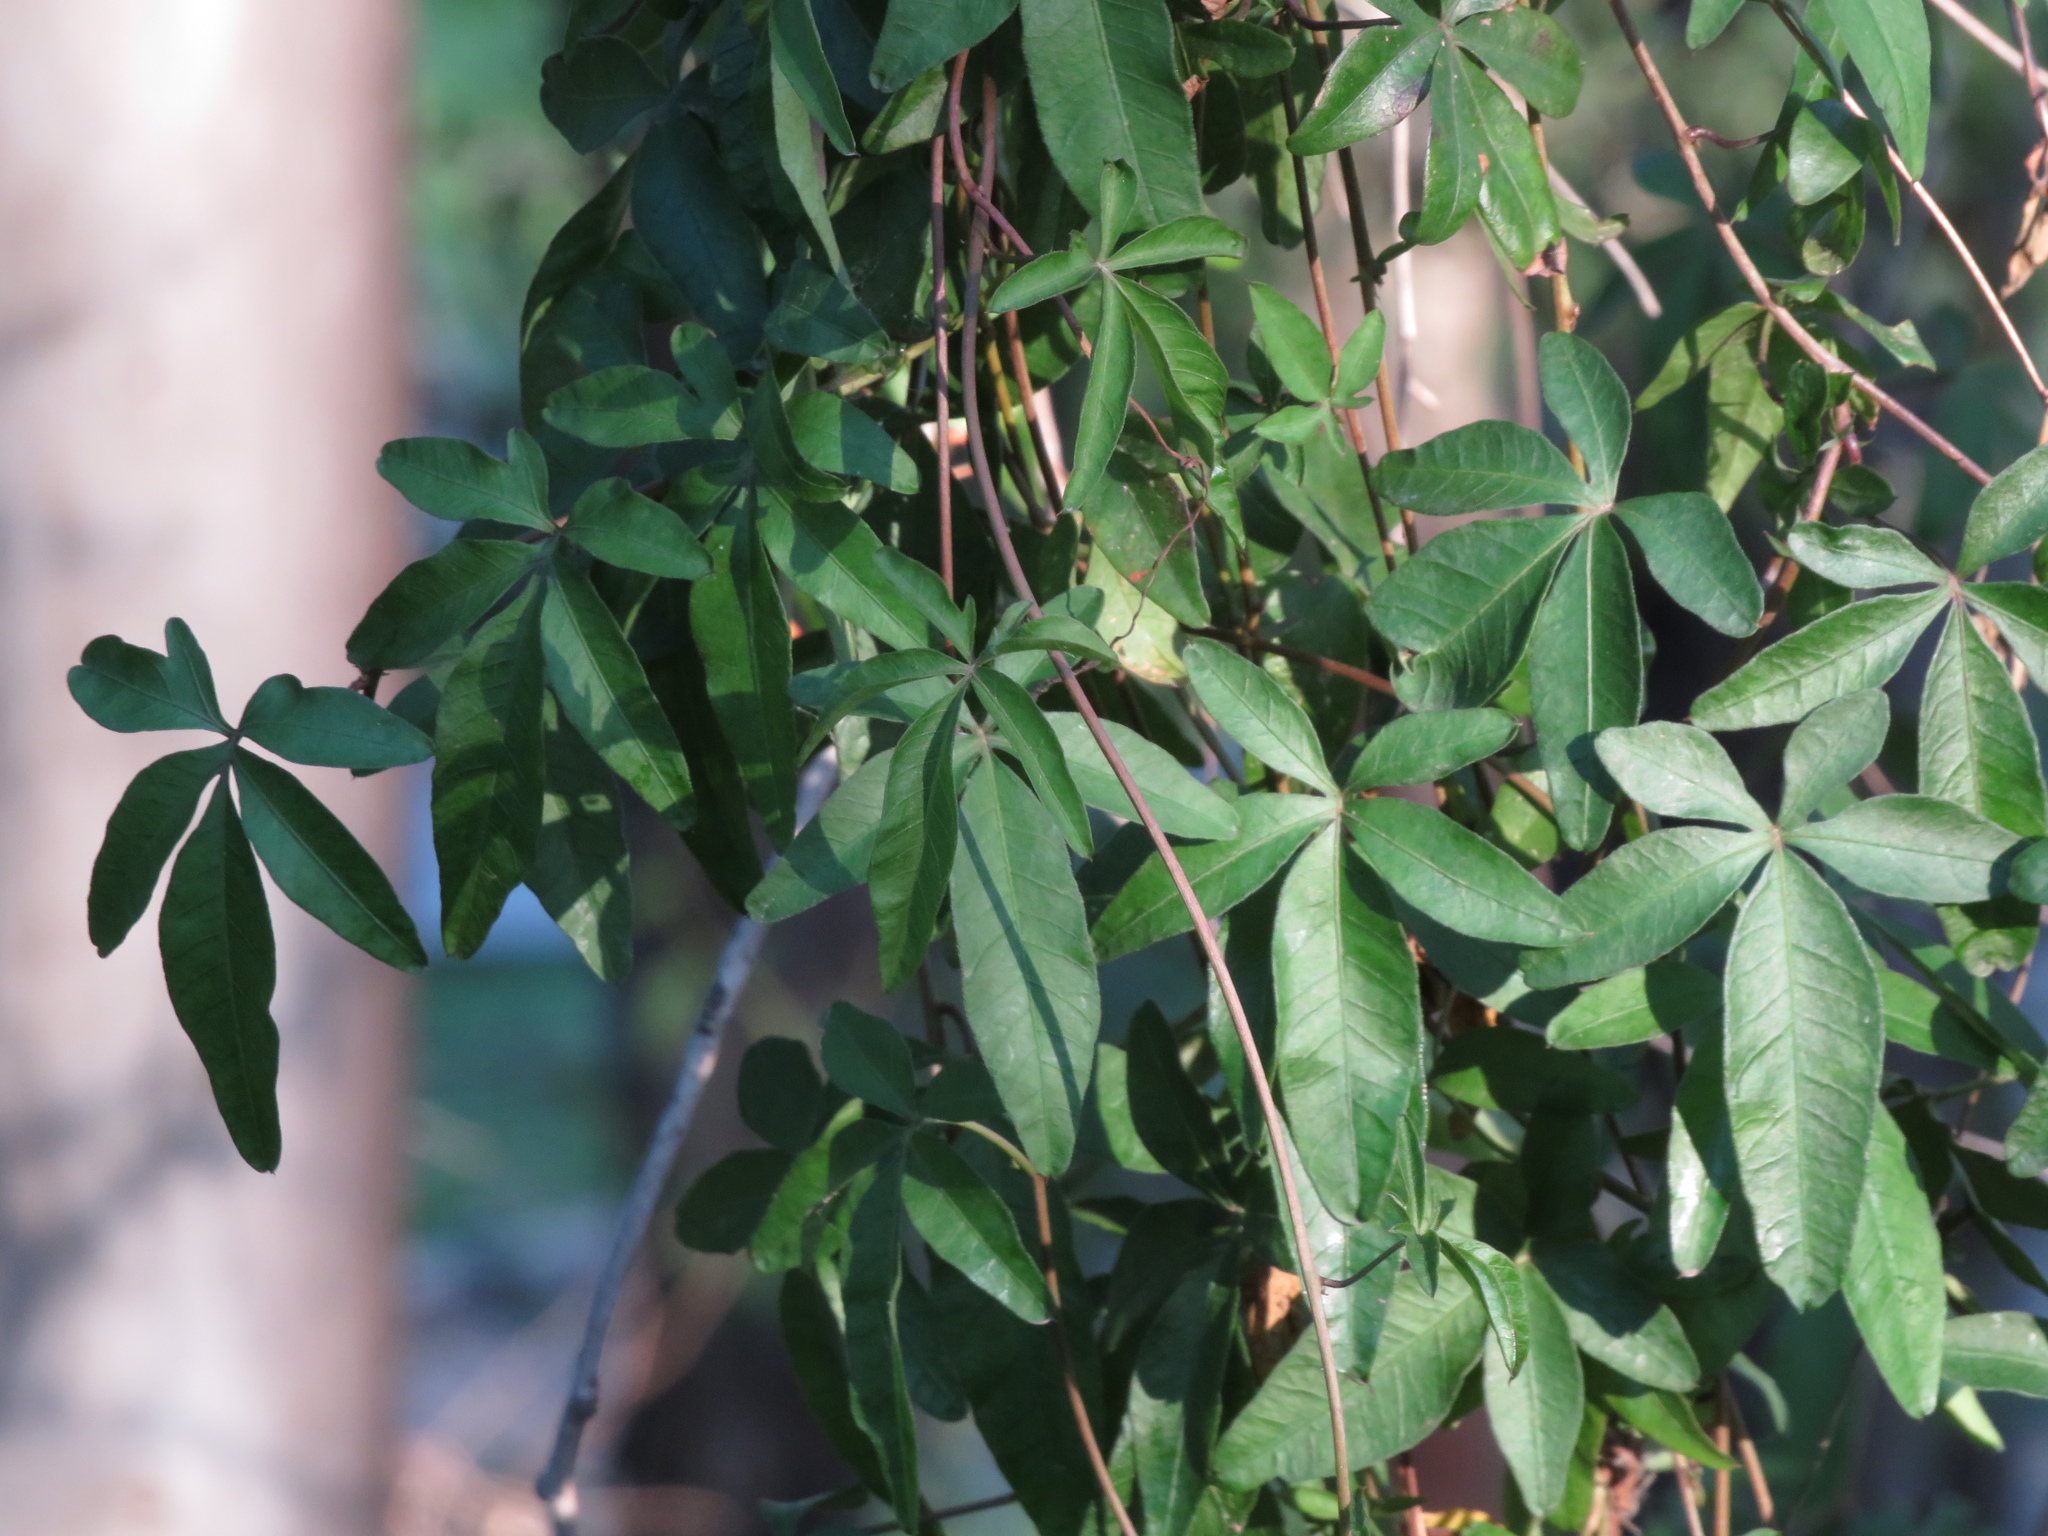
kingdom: Plantae
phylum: Tracheophyta
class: Magnoliopsida
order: Solanales
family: Convolvulaceae
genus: Ipomoea
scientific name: Ipomoea cairica
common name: Mile a minute vine
